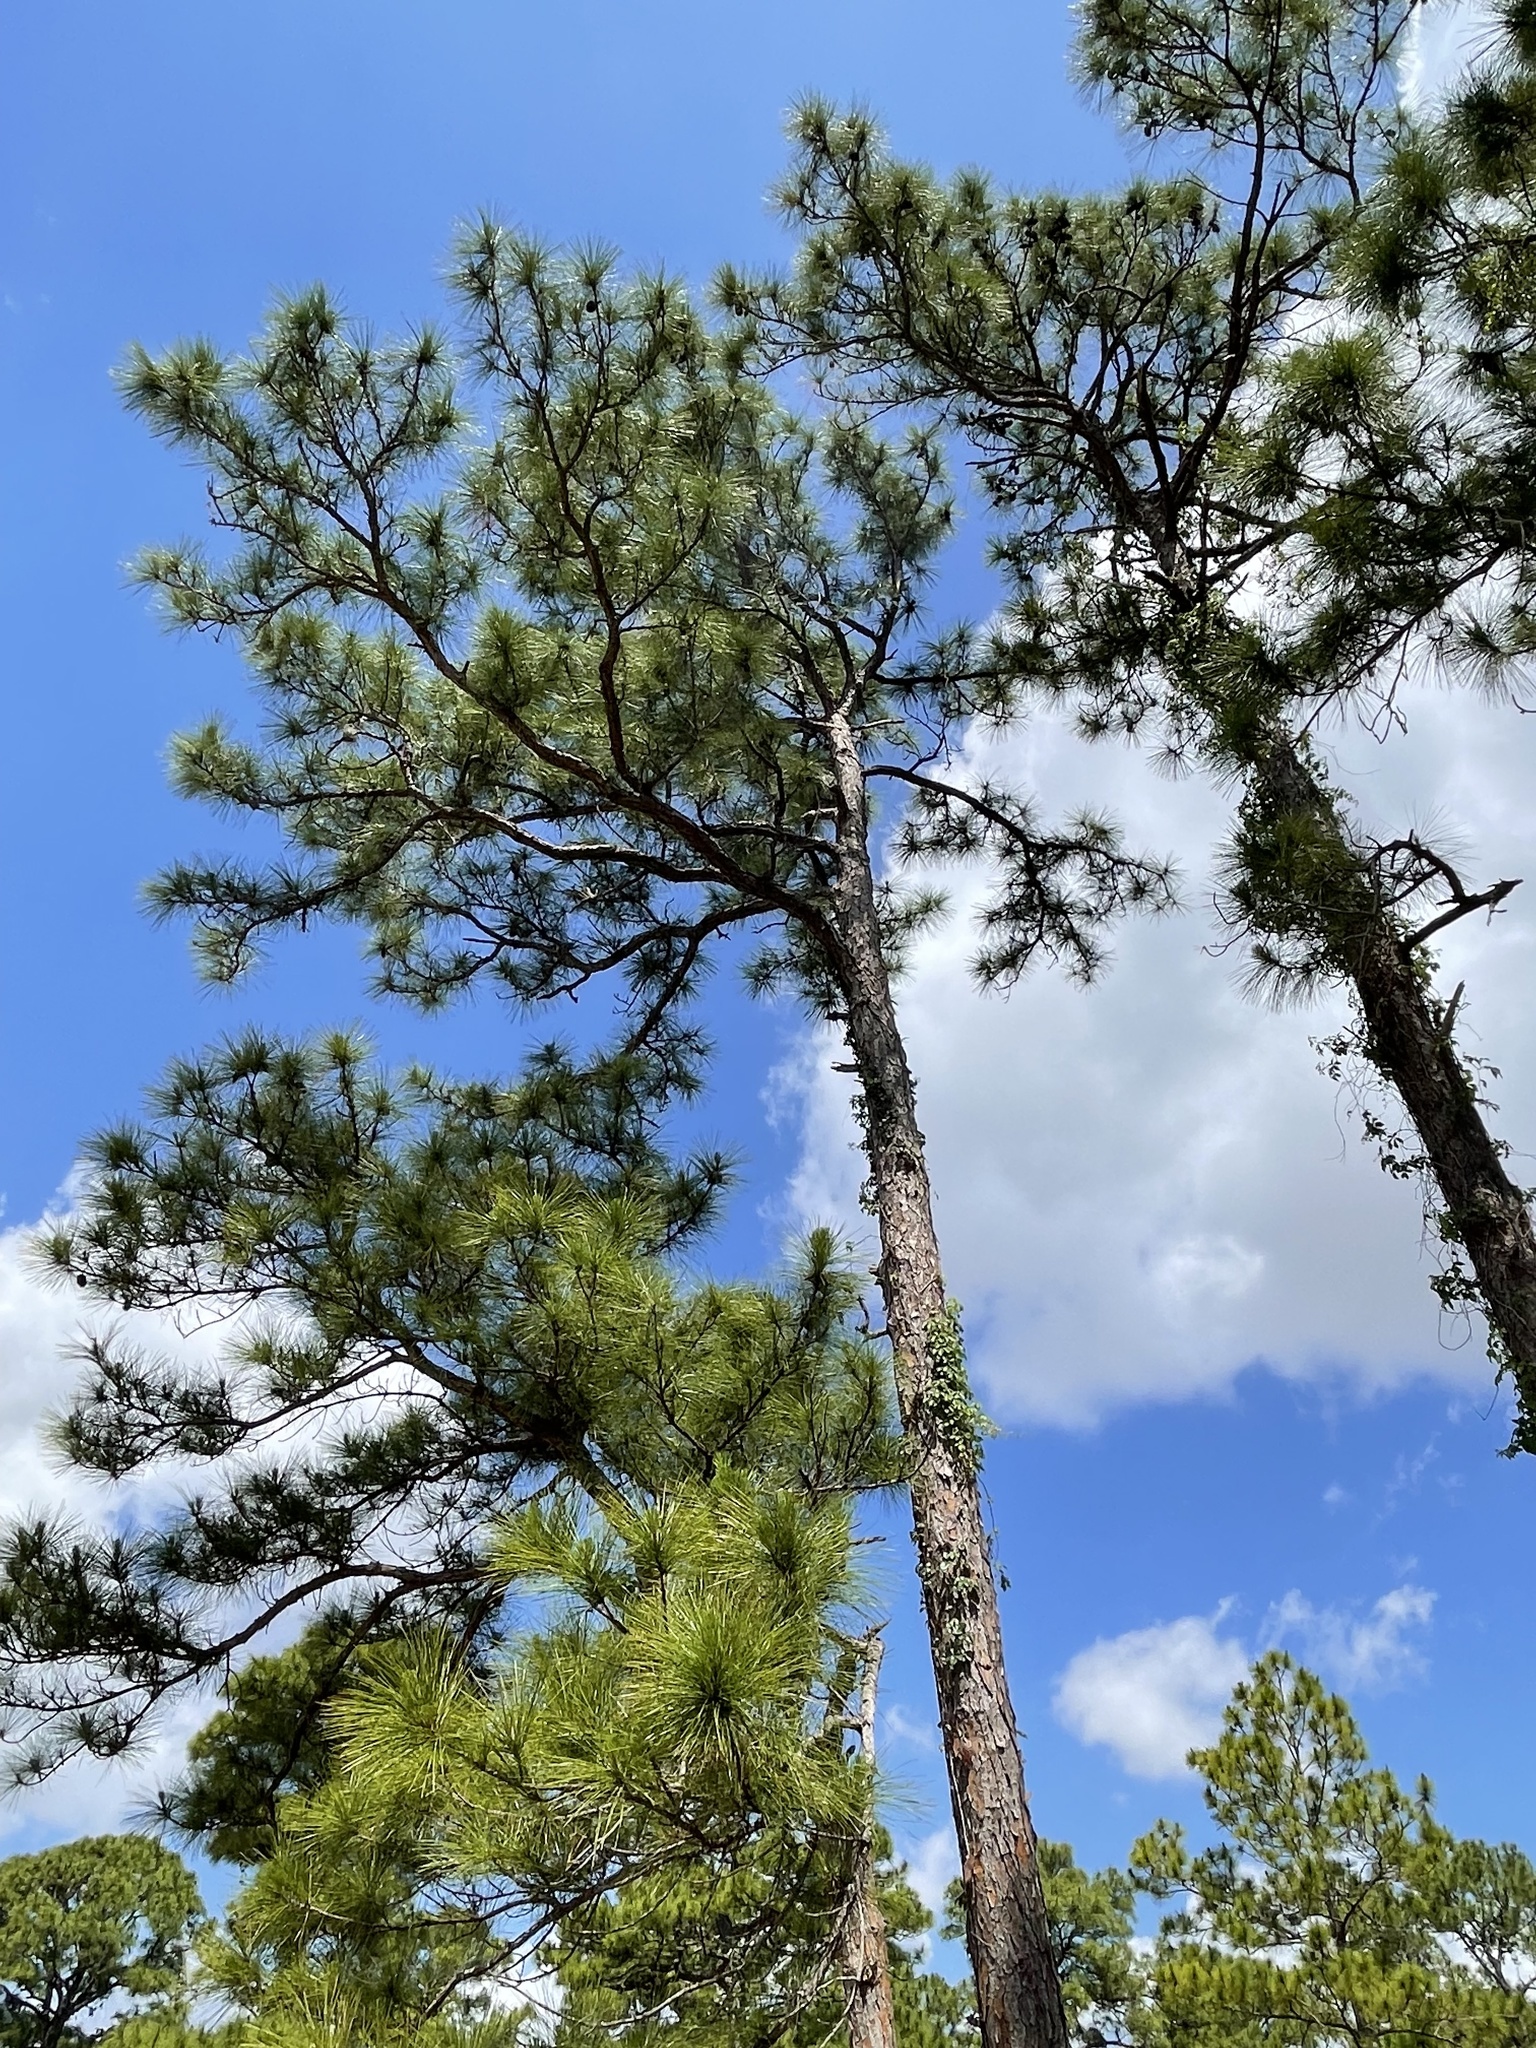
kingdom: Plantae
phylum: Tracheophyta
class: Pinopsida
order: Pinales
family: Pinaceae
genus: Pinus
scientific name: Pinus elliottii
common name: Slash pine
